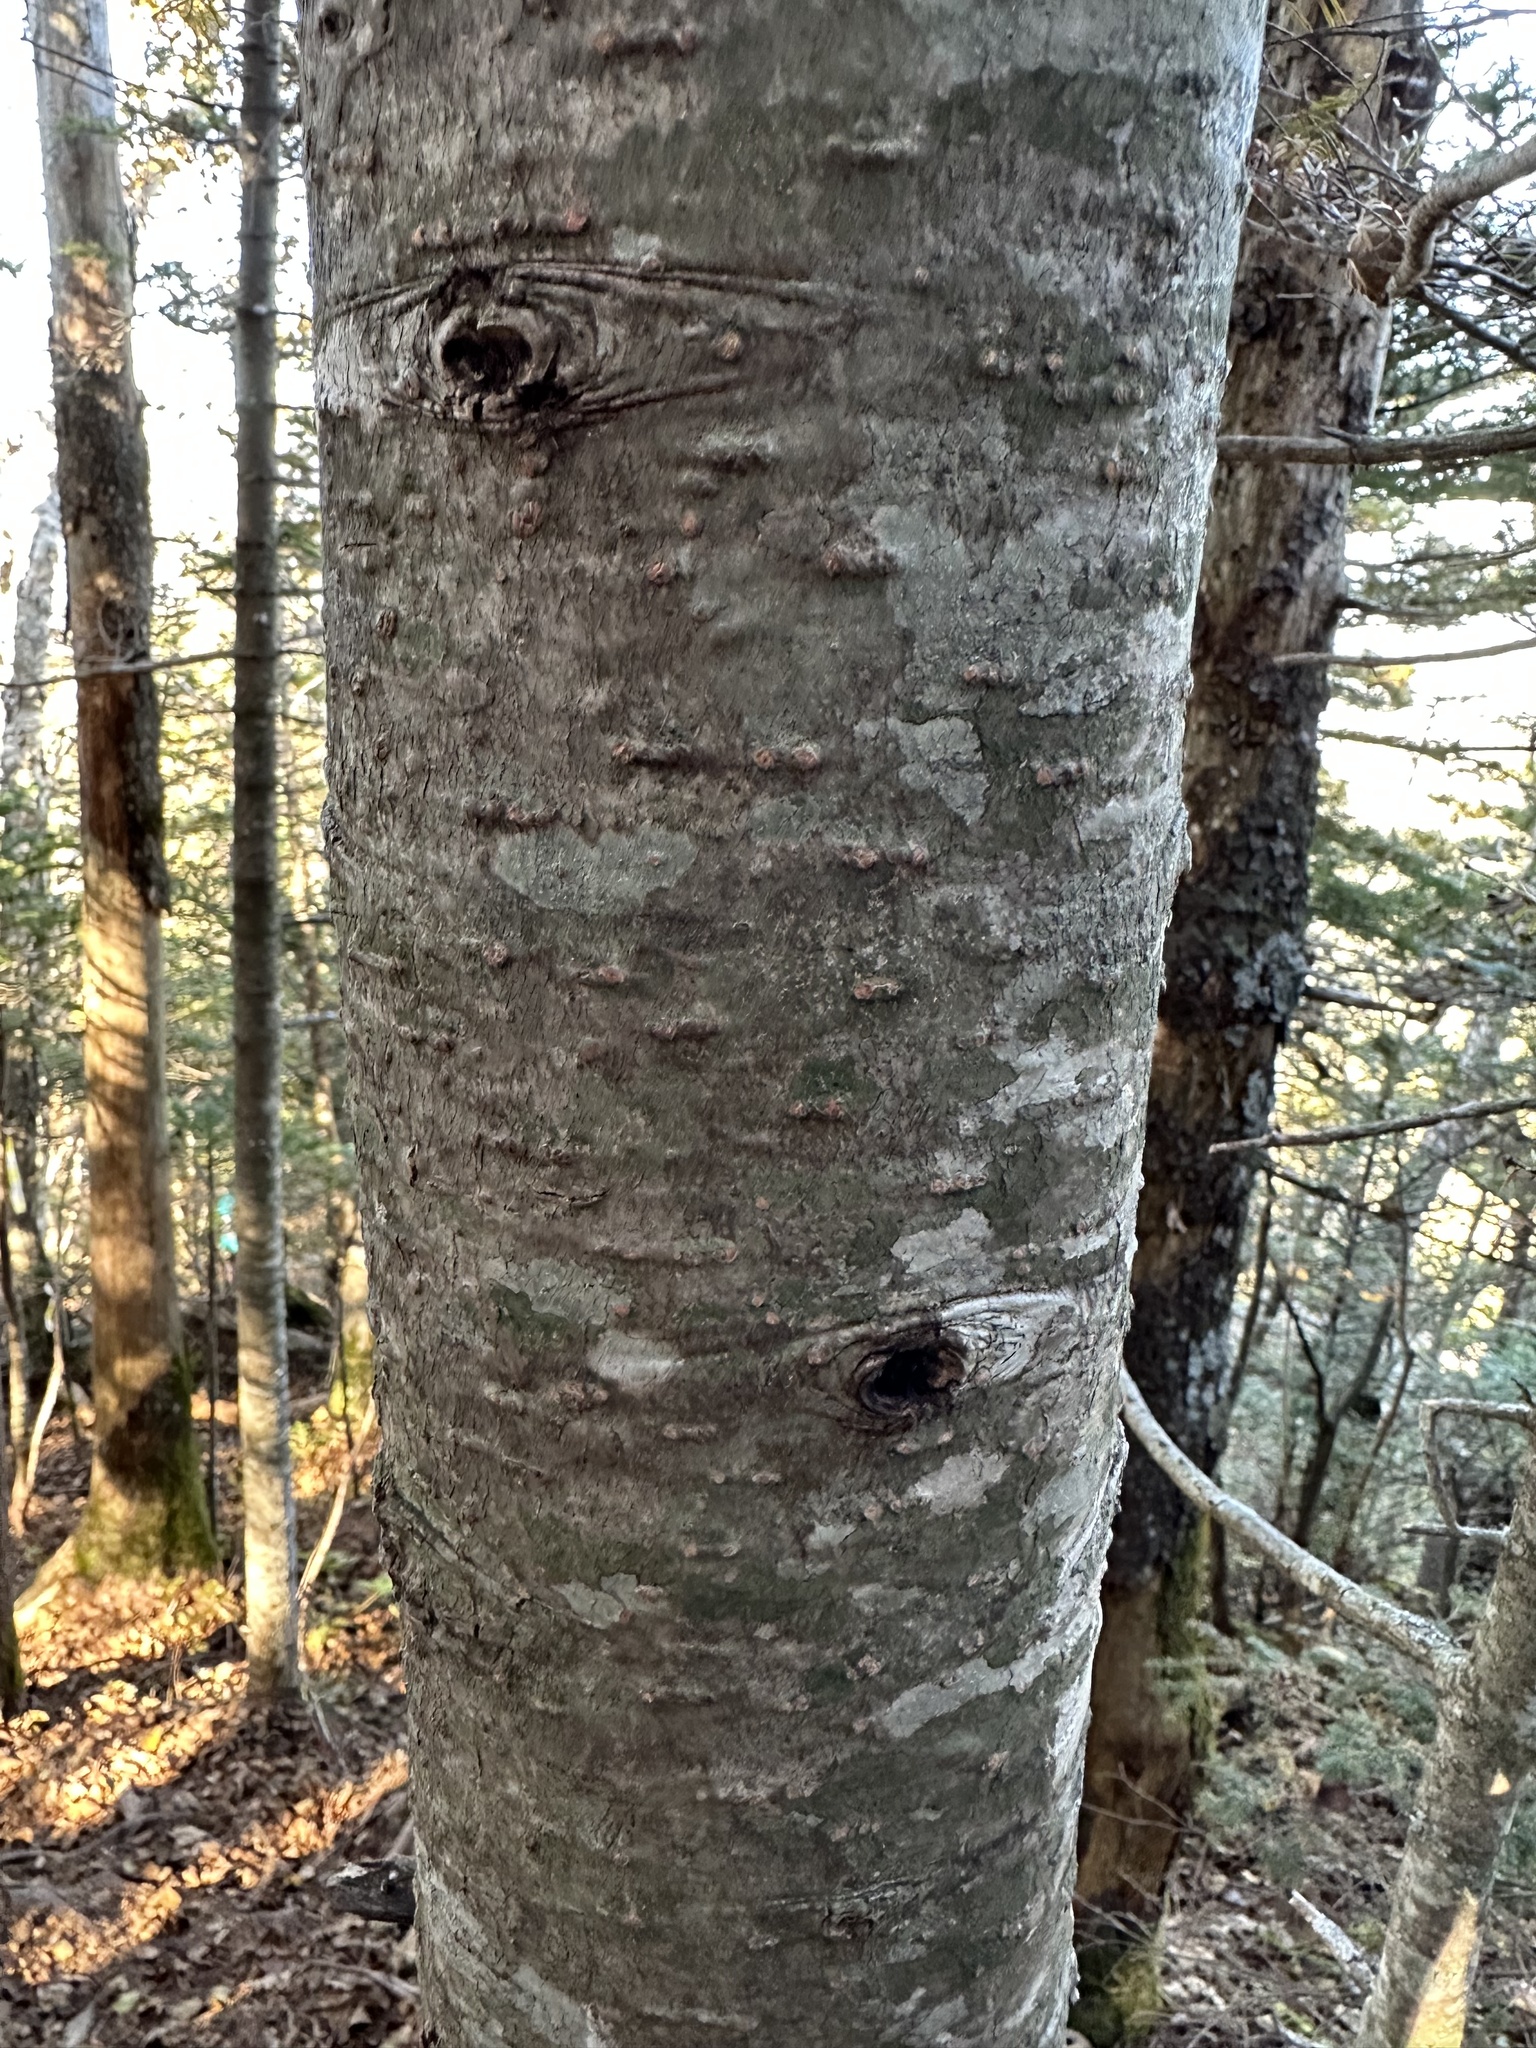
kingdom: Plantae
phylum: Tracheophyta
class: Pinopsida
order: Pinales
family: Pinaceae
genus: Abies
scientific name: Abies nephrolepis
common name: Hinggan fir
